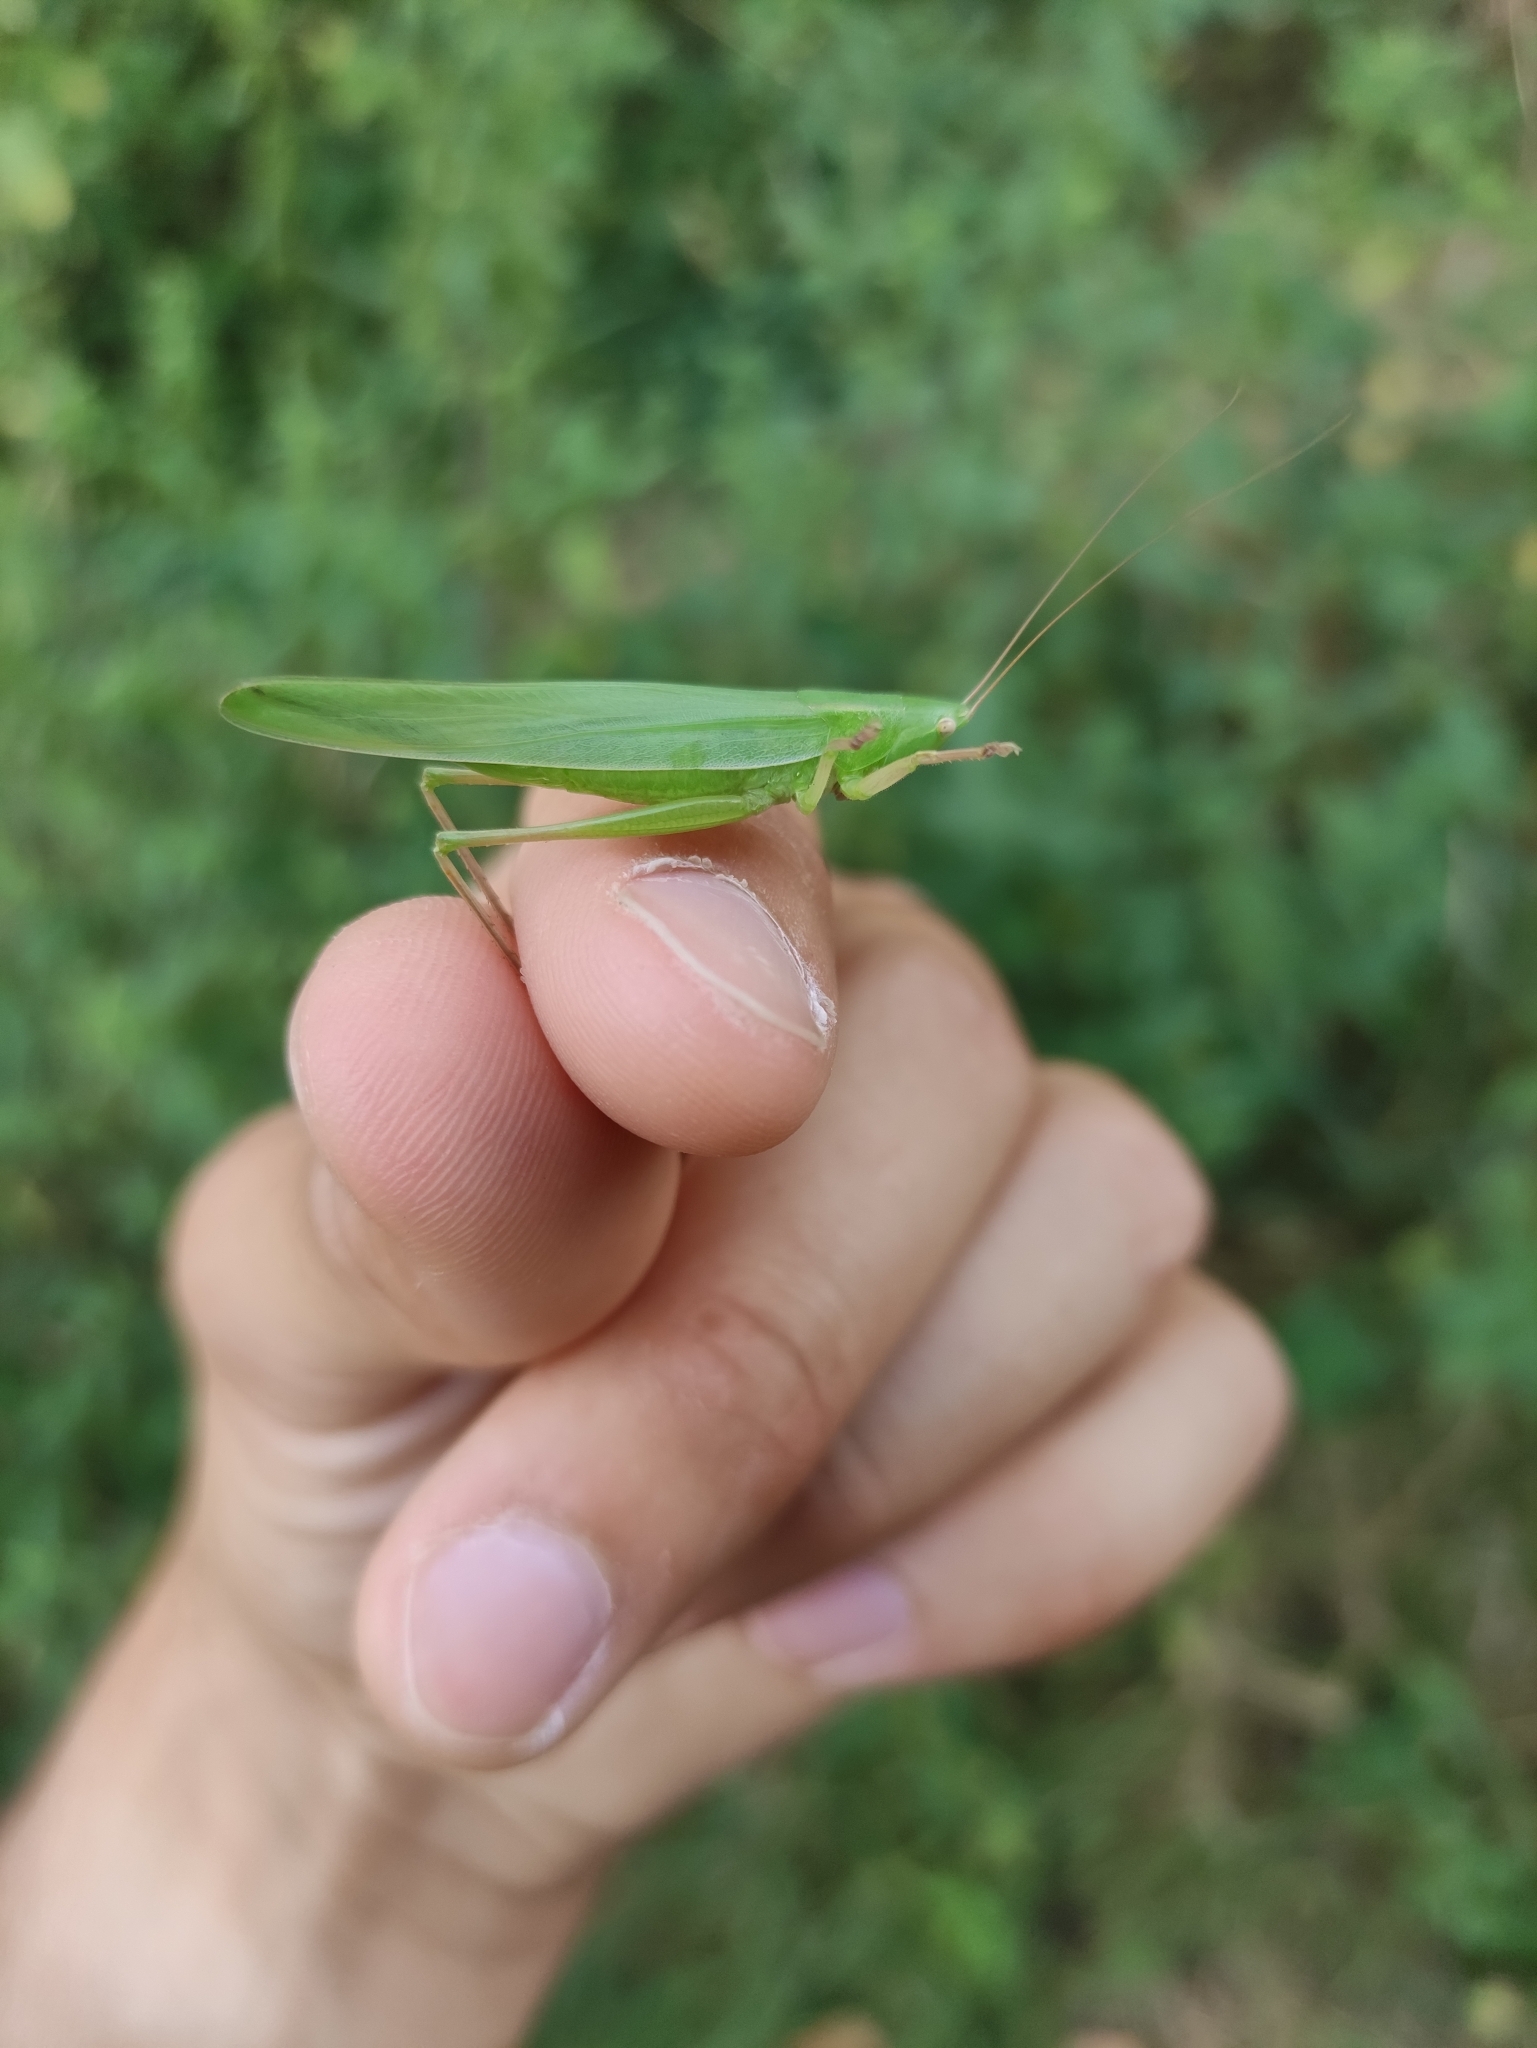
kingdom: Animalia
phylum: Arthropoda
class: Insecta
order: Orthoptera
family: Tettigoniidae
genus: Ruspolia
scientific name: Ruspolia nitidula
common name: Large conehead
